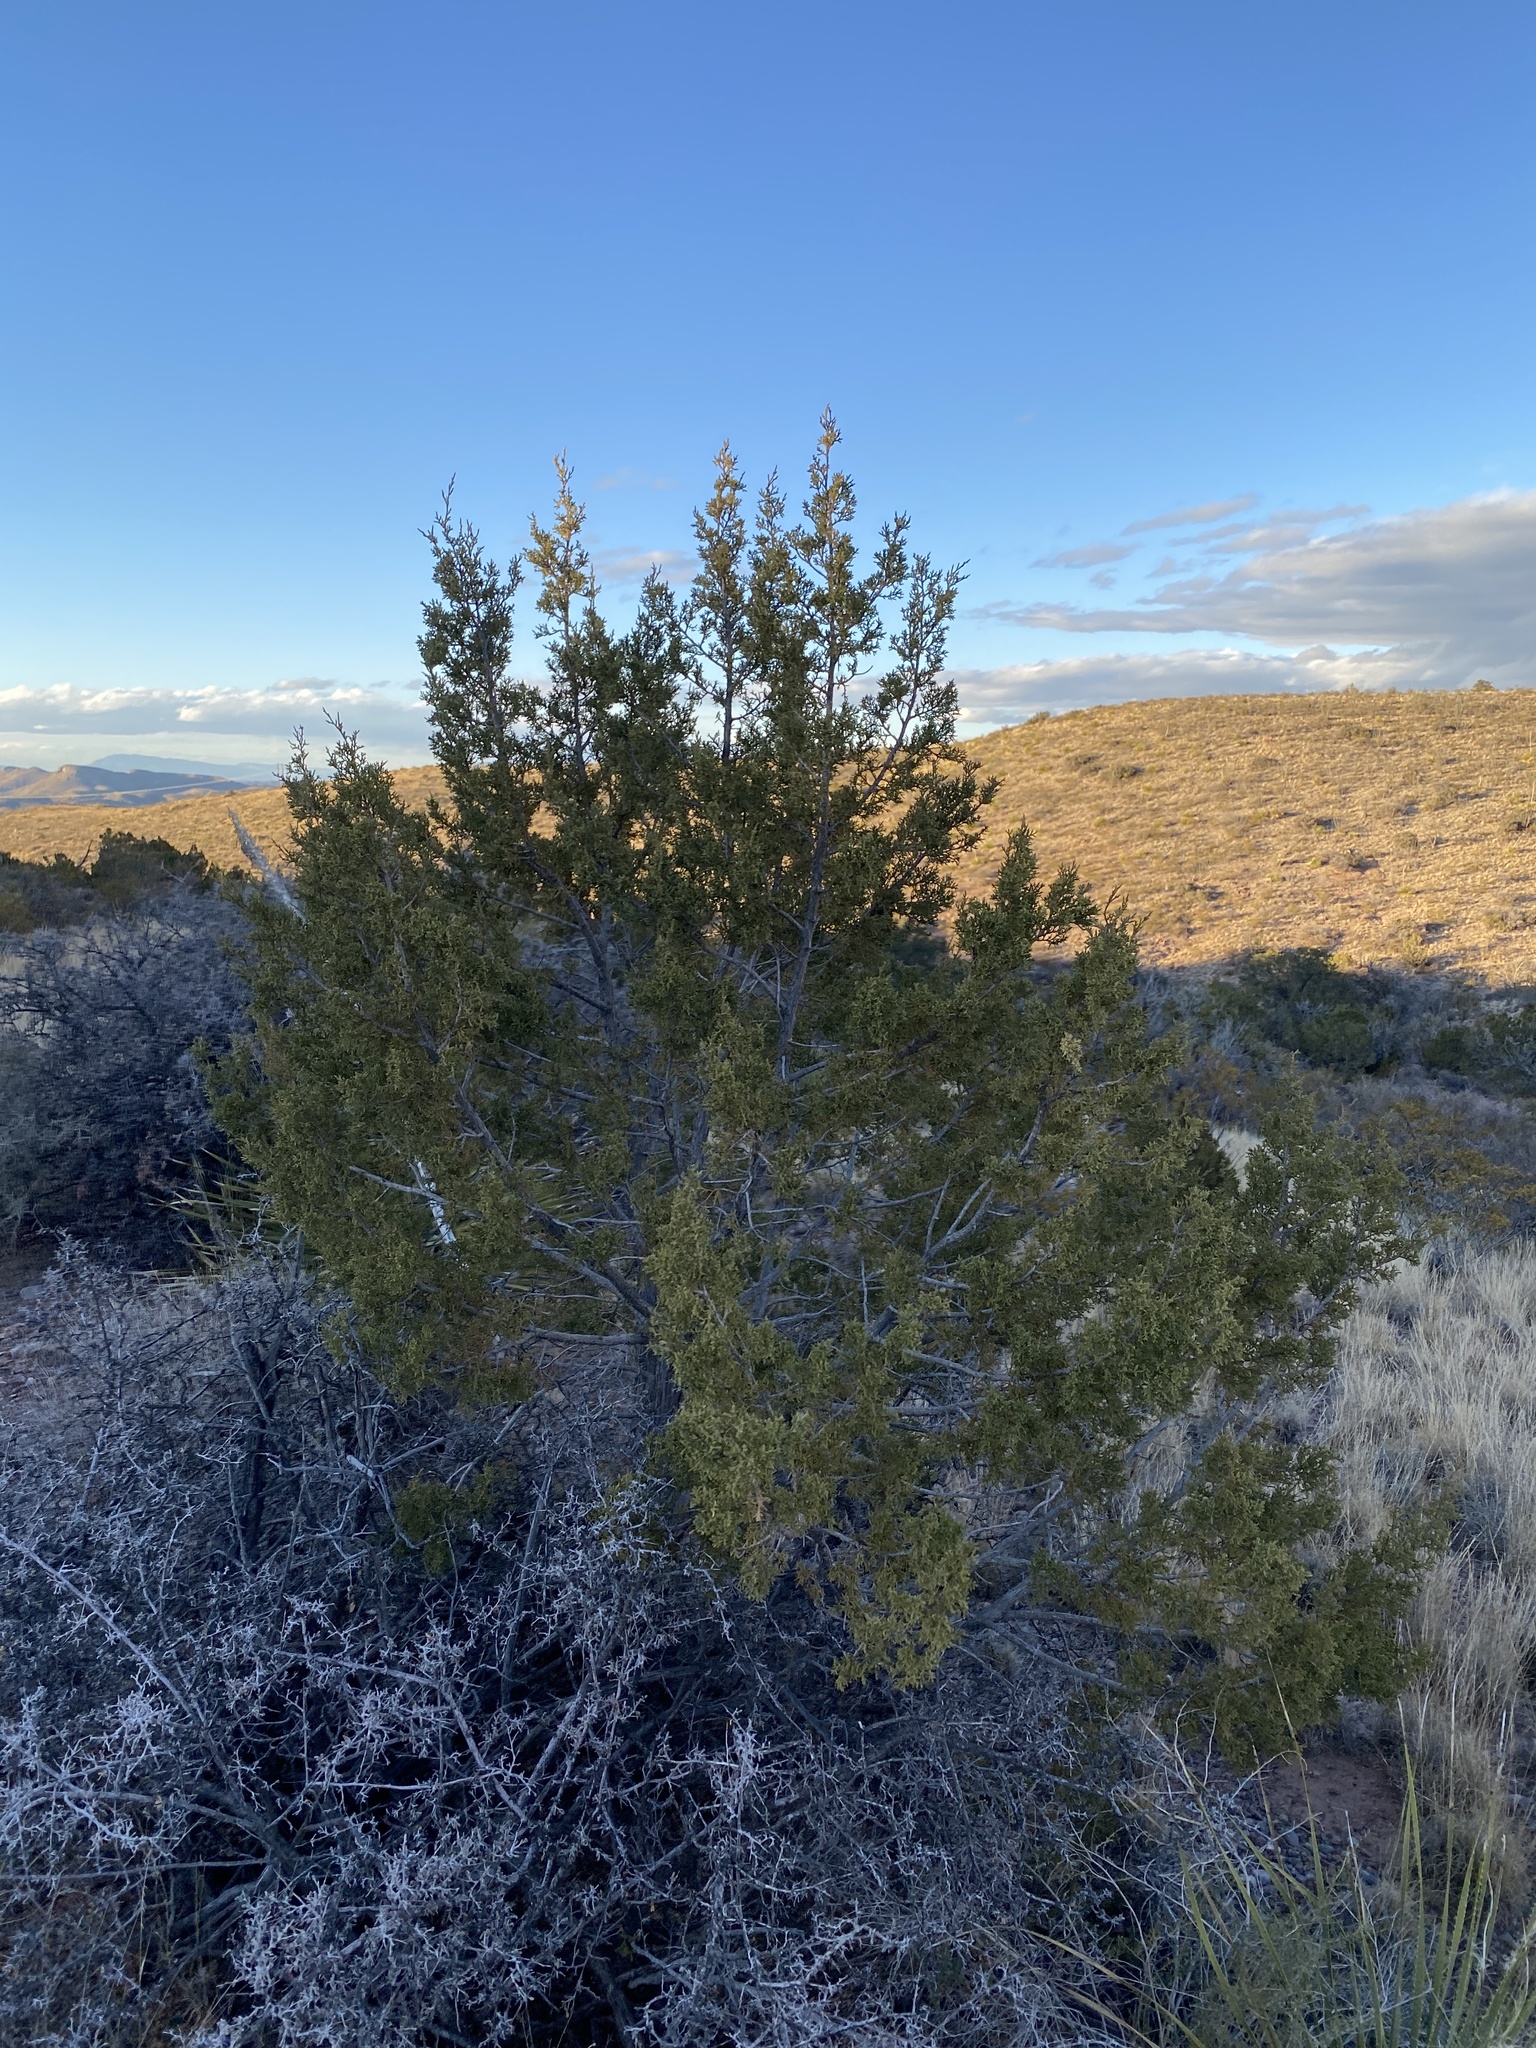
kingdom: Plantae
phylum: Tracheophyta
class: Pinopsida
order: Pinales
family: Cupressaceae
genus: Juniperus
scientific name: Juniperus monosperma
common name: One-seed juniper
